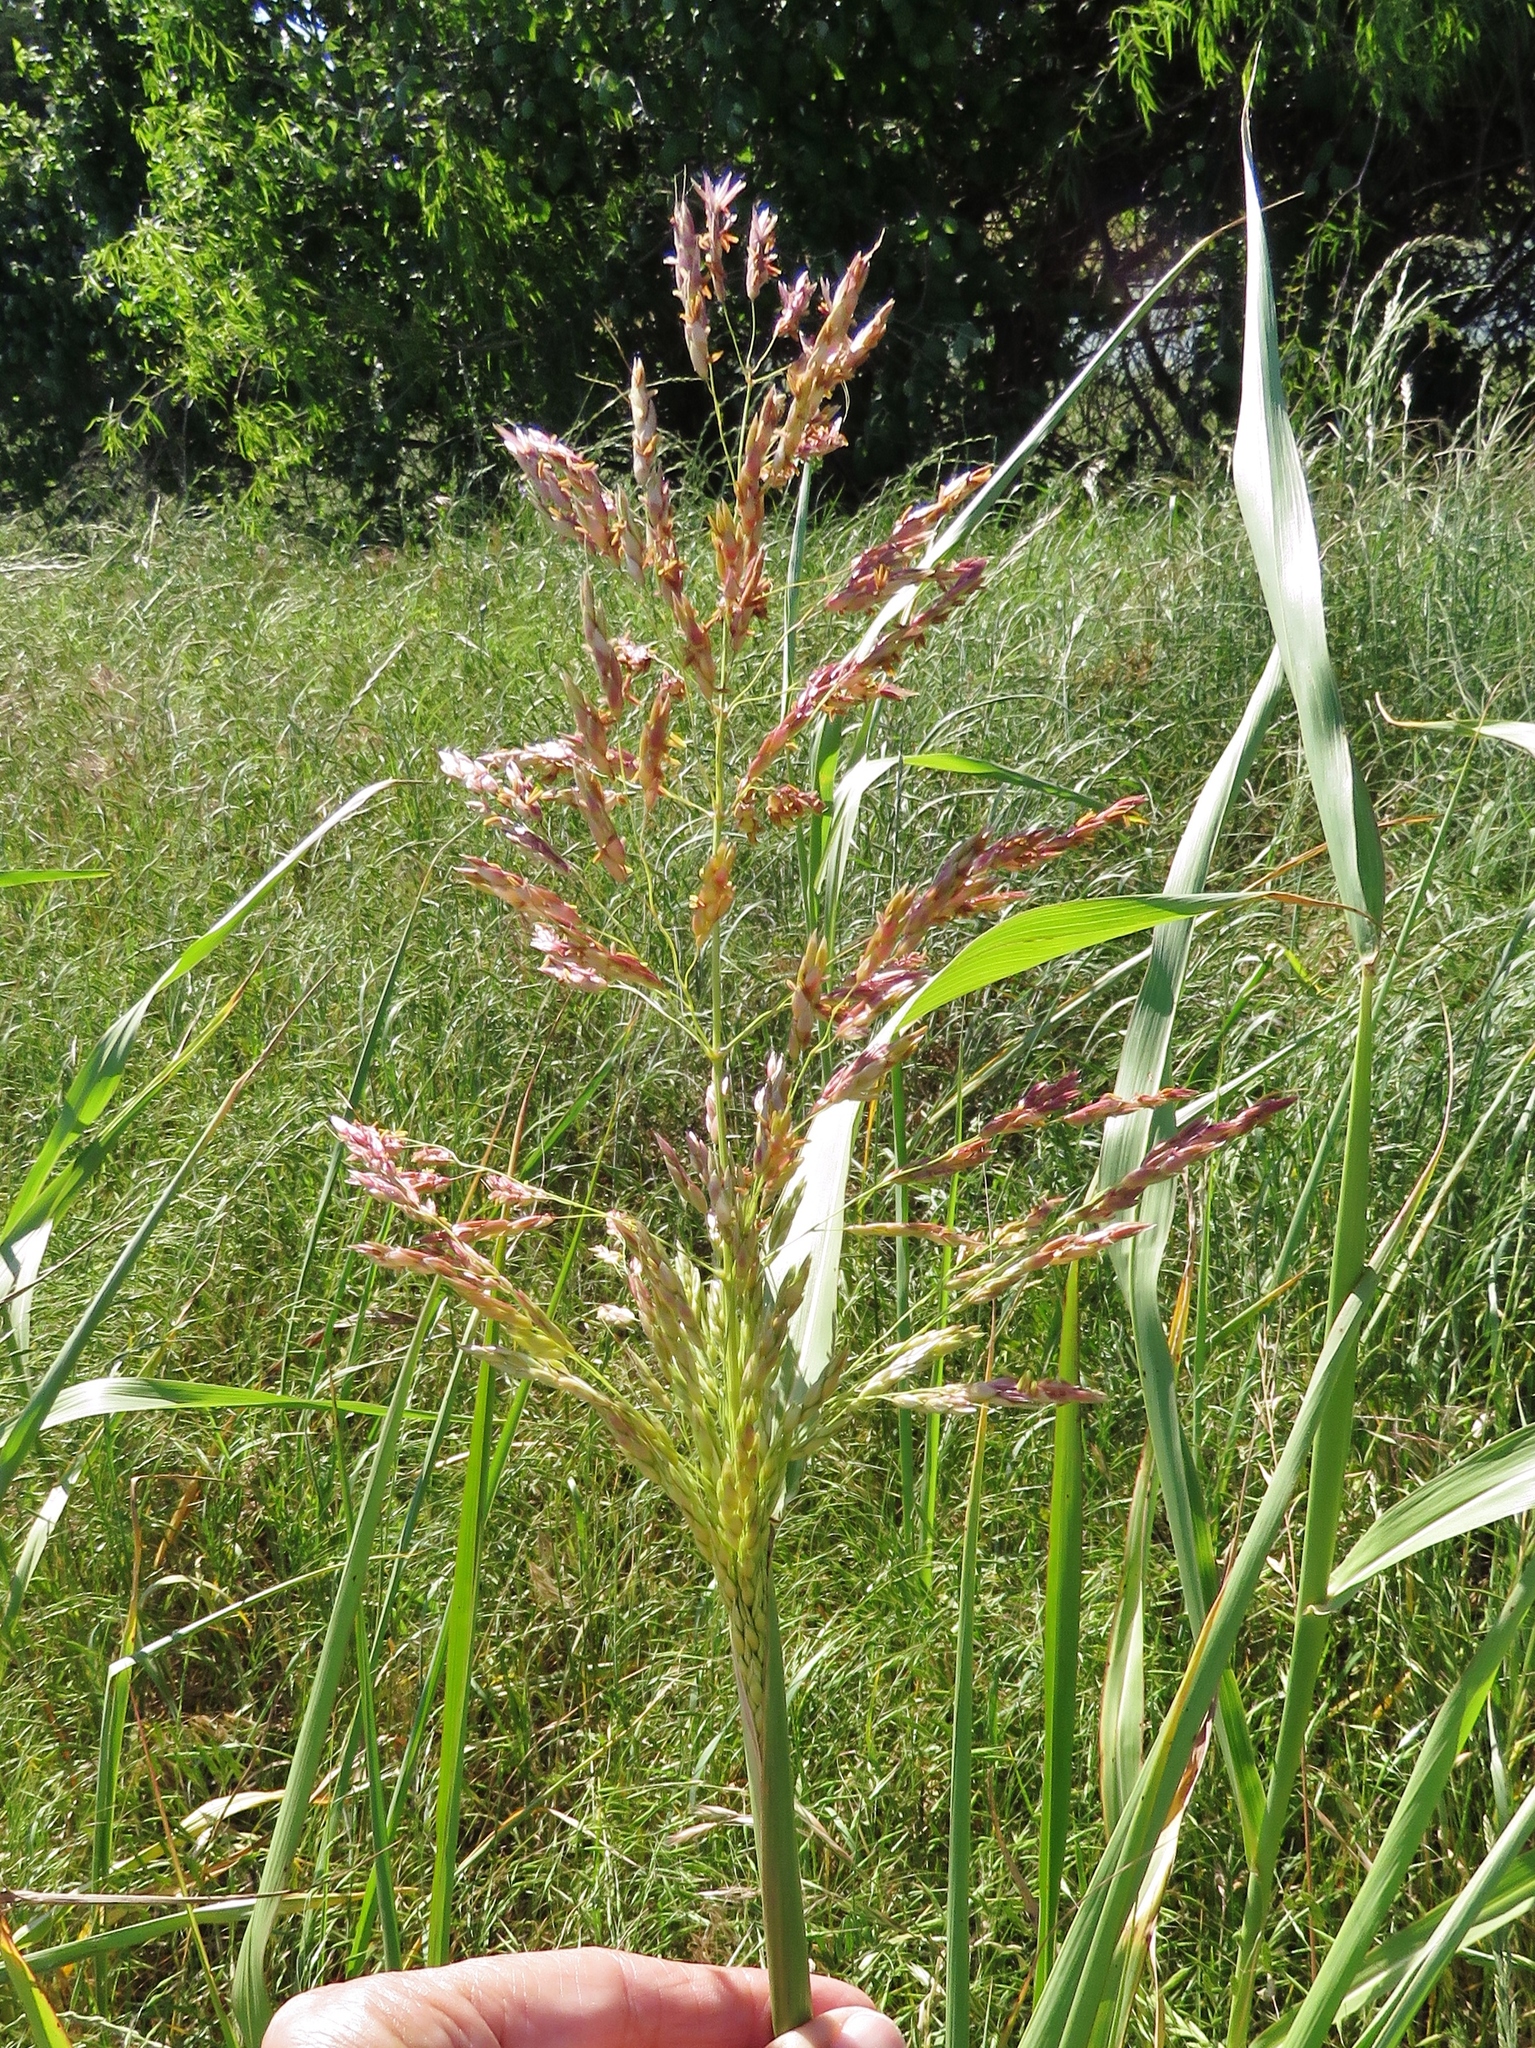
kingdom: Plantae
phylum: Tracheophyta
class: Liliopsida
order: Poales
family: Poaceae
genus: Sorghum
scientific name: Sorghum halepense
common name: Johnson-grass
